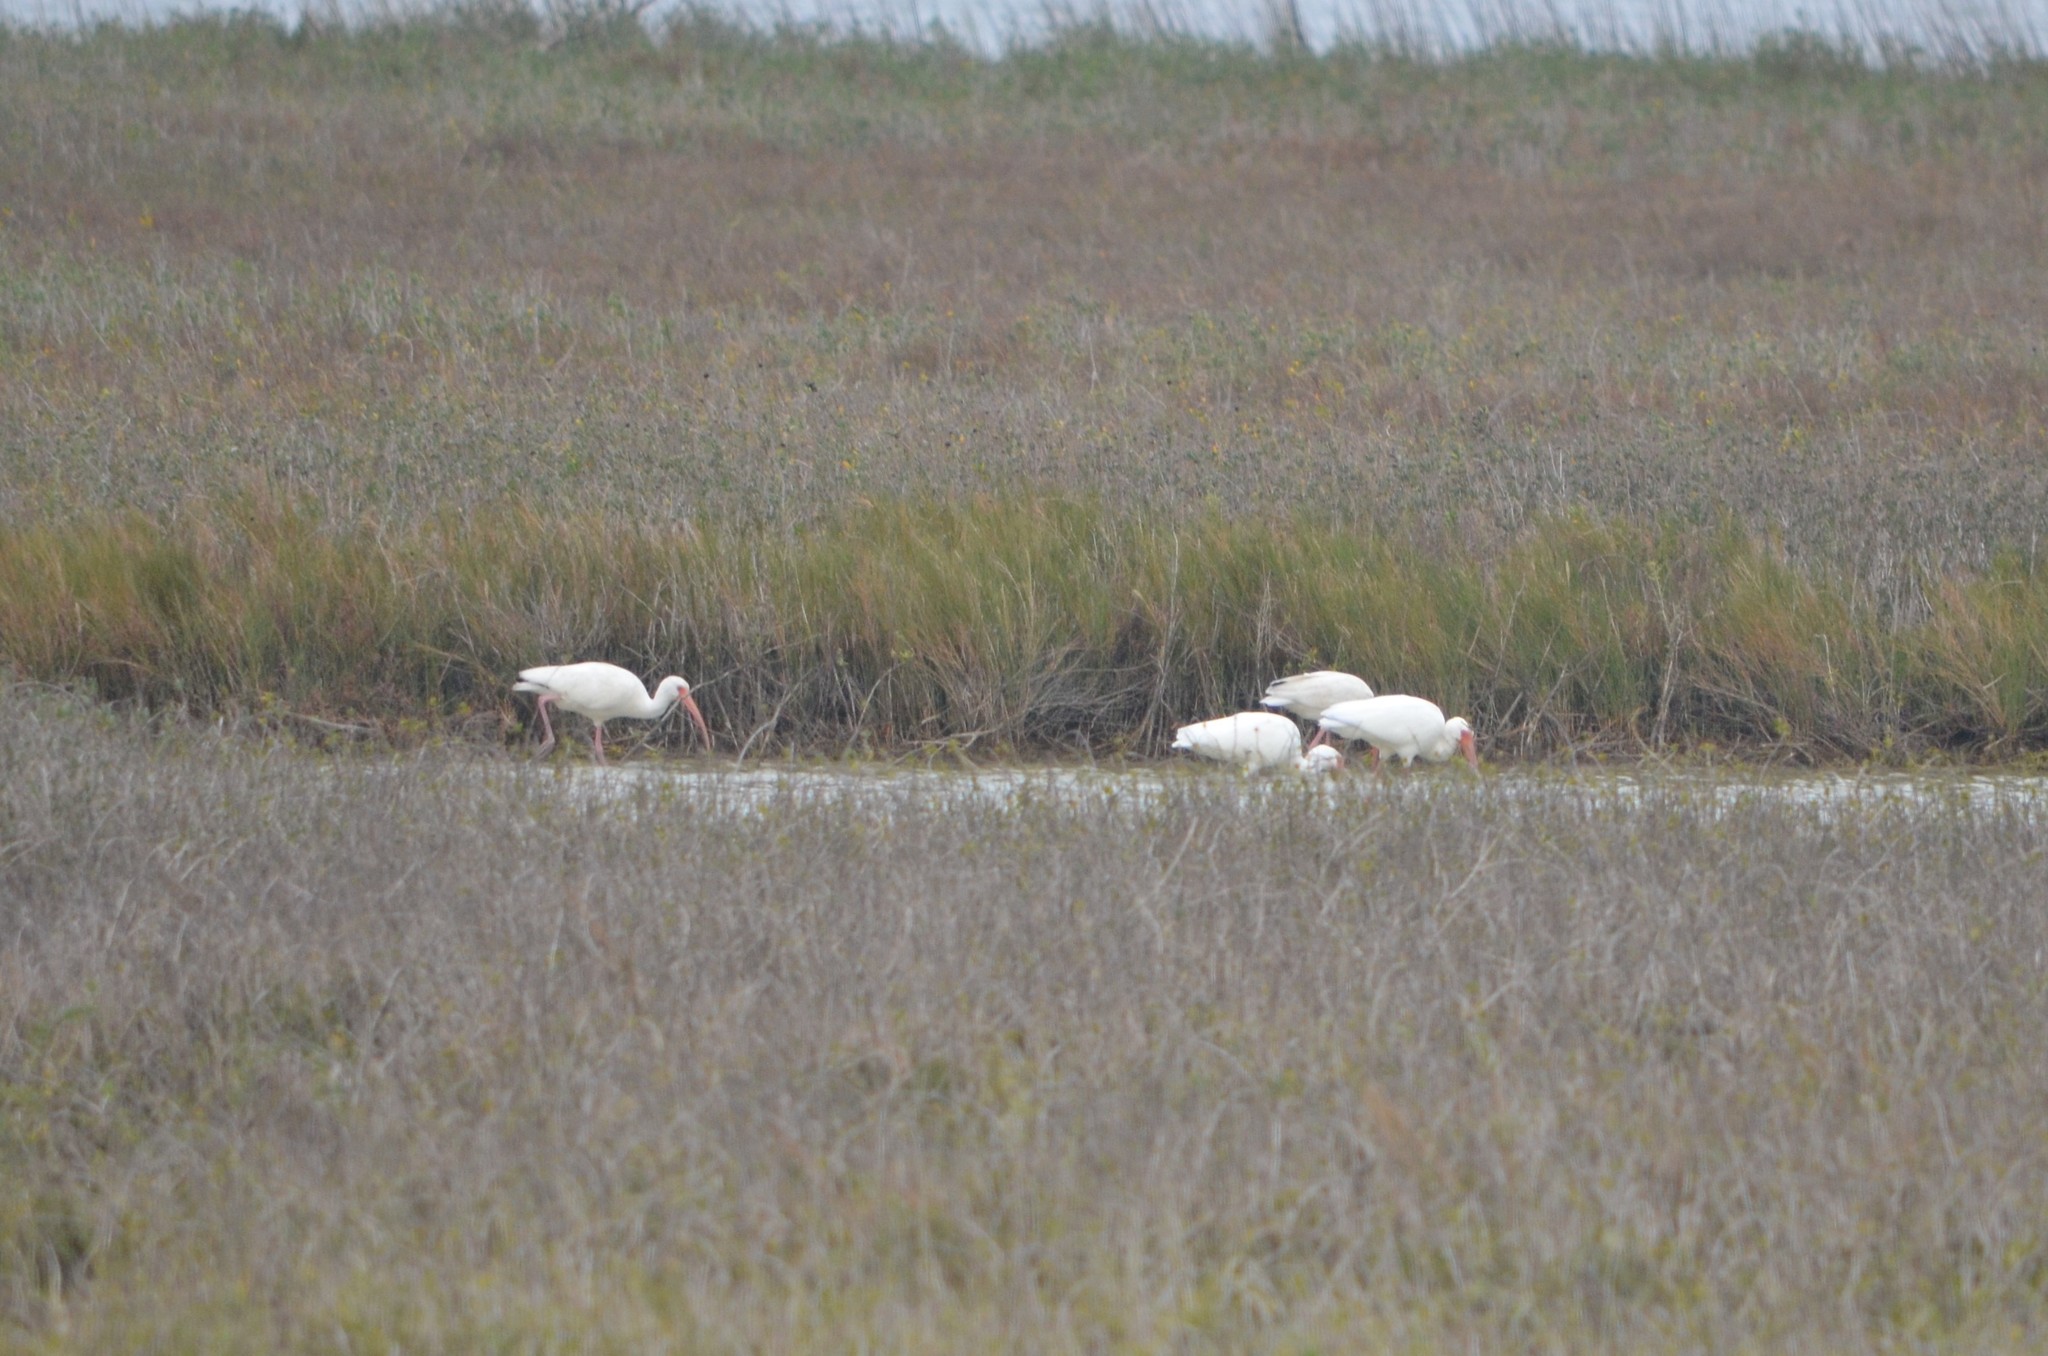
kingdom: Animalia
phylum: Chordata
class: Aves
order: Pelecaniformes
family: Threskiornithidae
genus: Eudocimus
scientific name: Eudocimus albus
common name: White ibis
